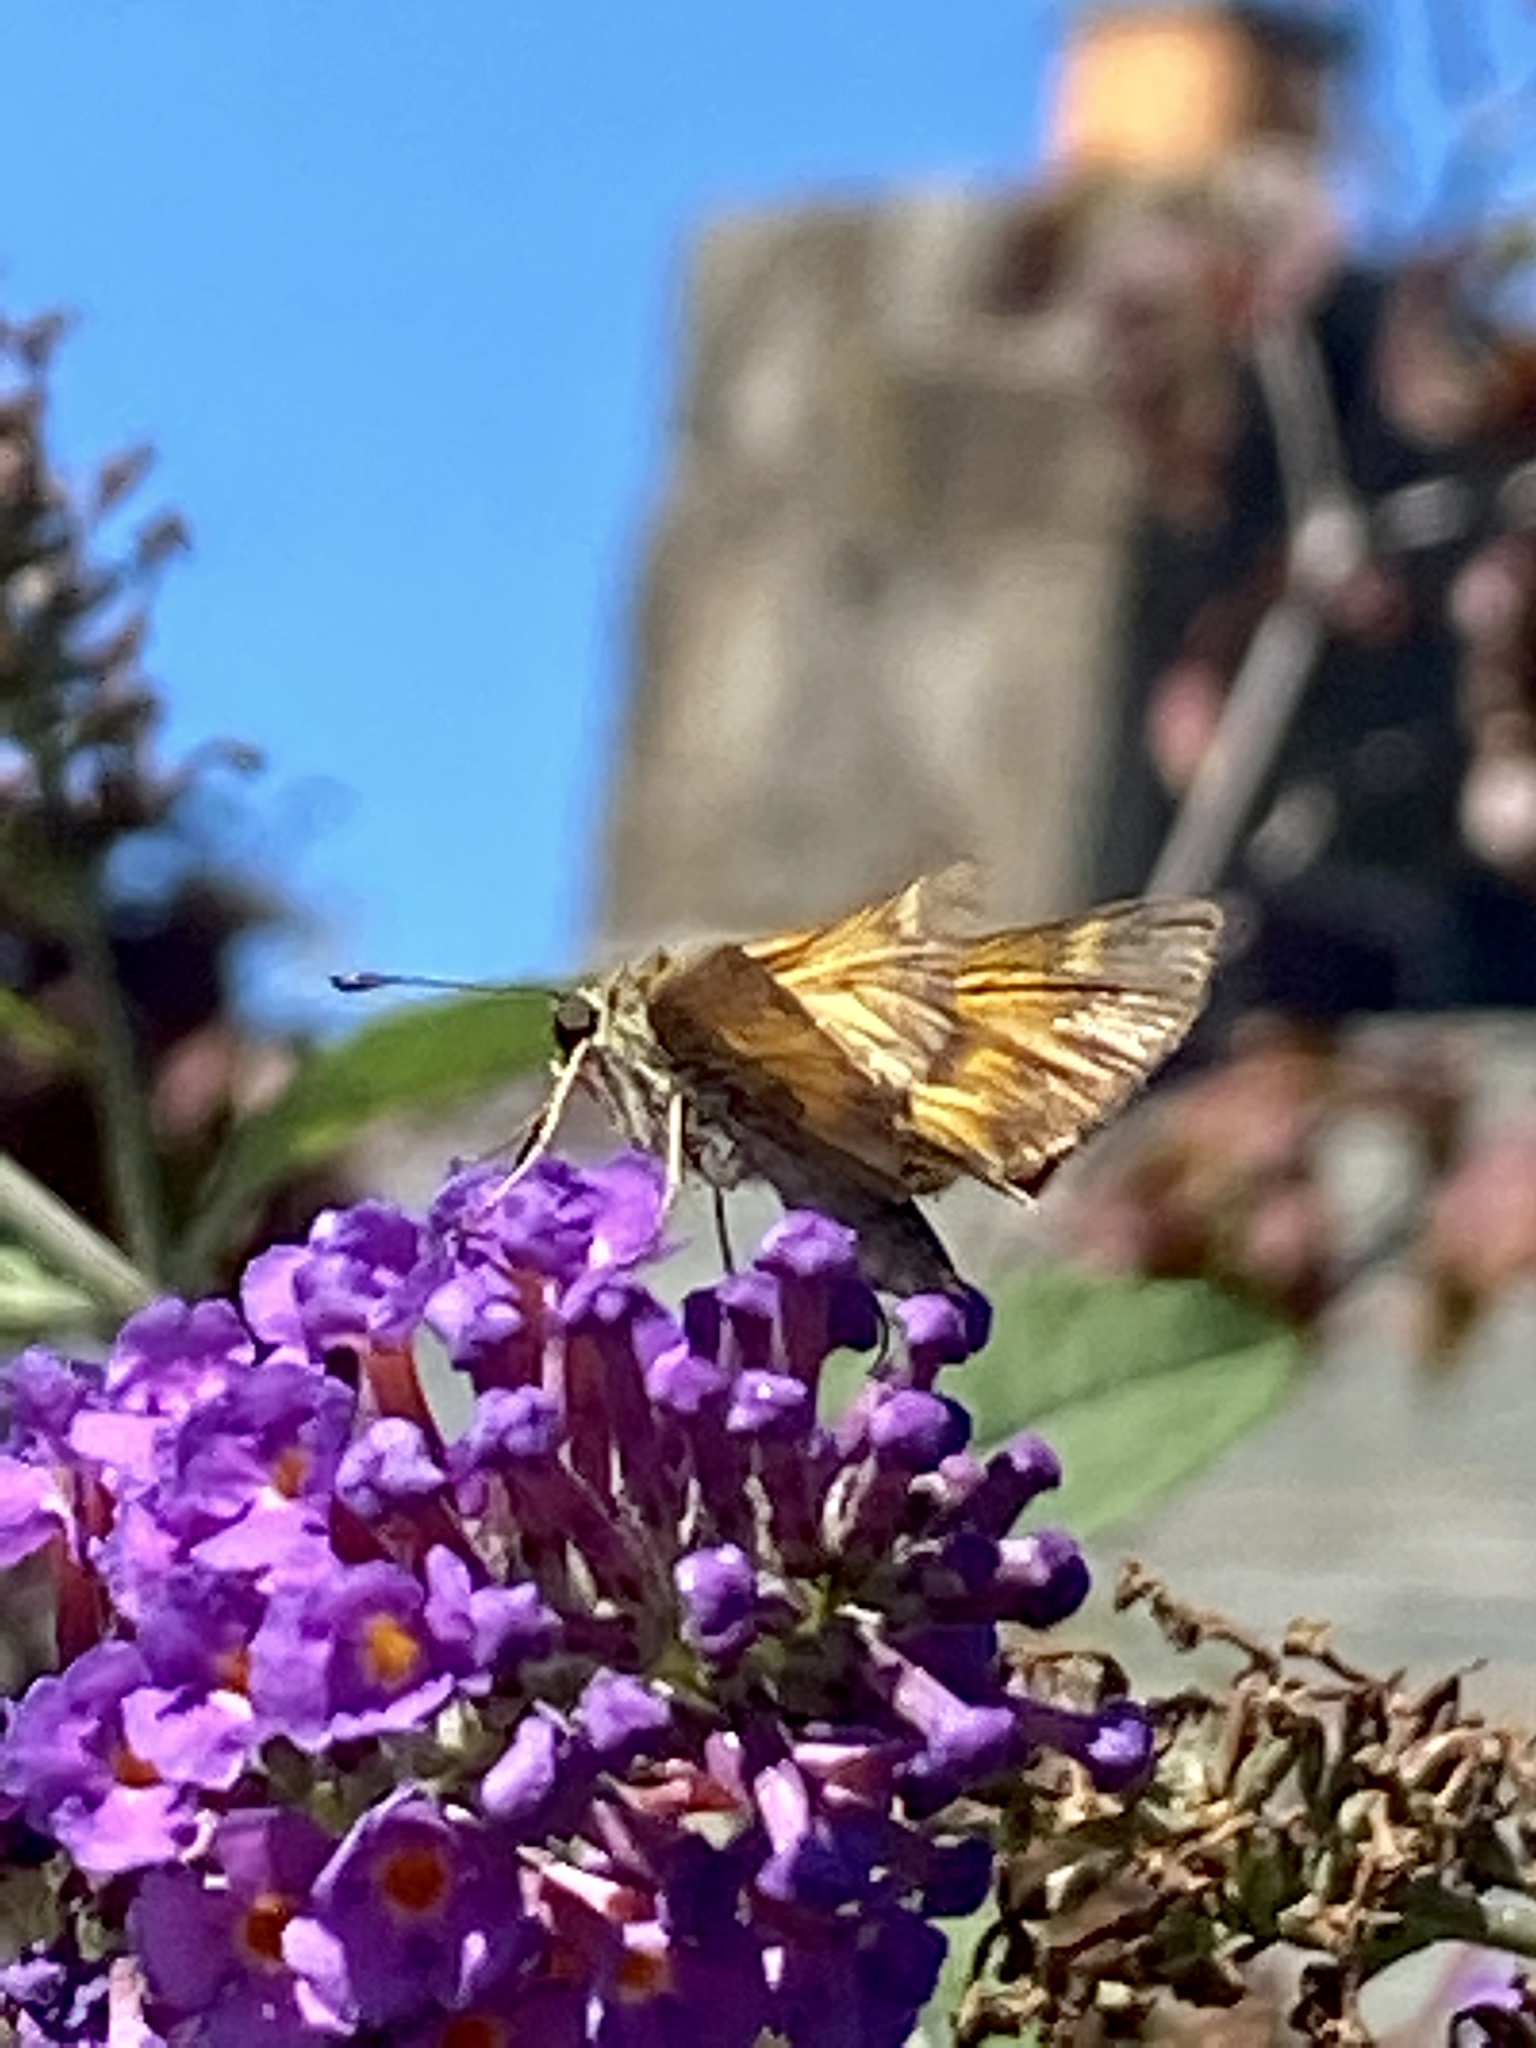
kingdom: Animalia
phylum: Arthropoda
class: Insecta
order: Lepidoptera
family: Hesperiidae
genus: Atalopedes
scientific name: Atalopedes
